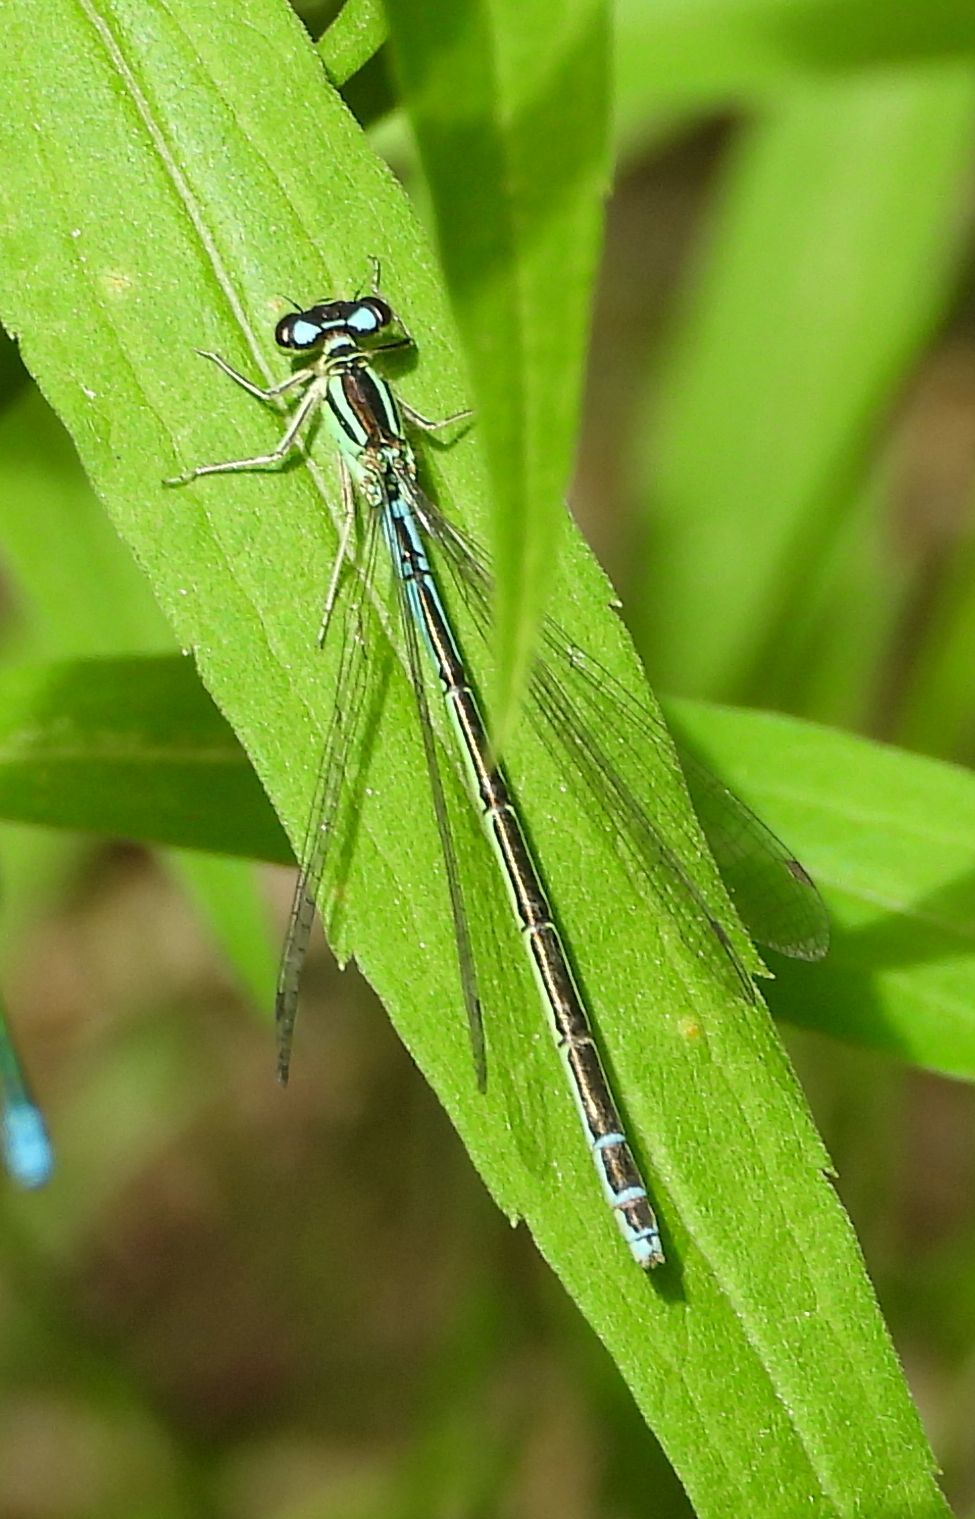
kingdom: Animalia
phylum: Arthropoda
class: Insecta
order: Odonata
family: Coenagrionidae
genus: Coenagrion
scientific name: Coenagrion resolutum
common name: Taiga bluet
